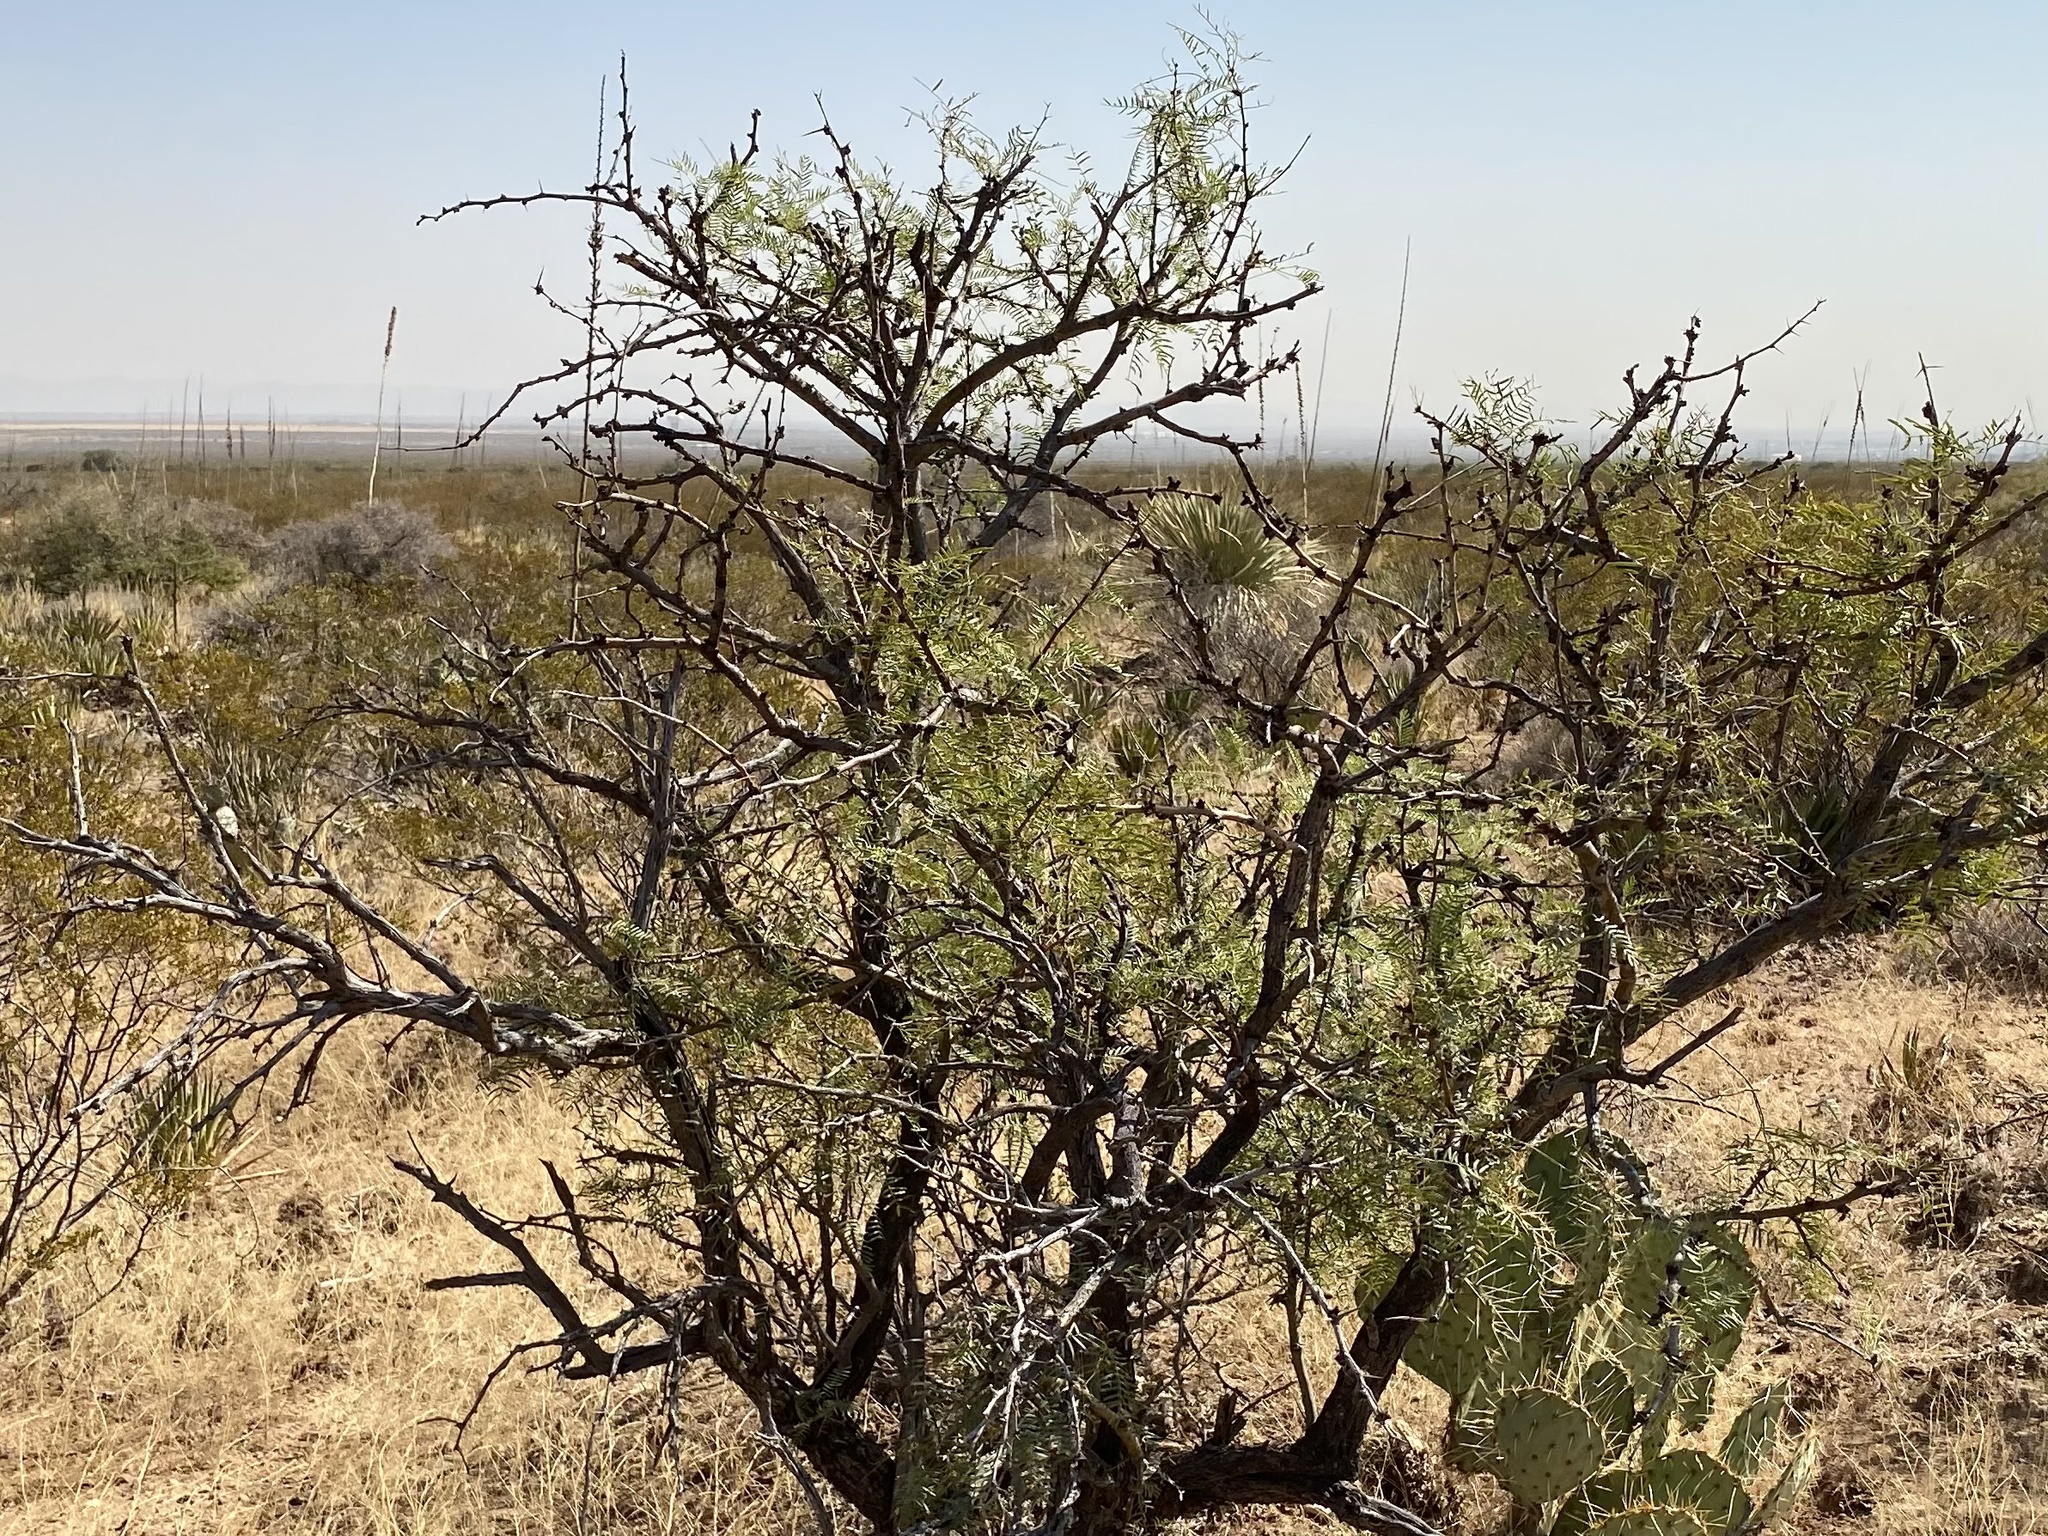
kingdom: Plantae
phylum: Tracheophyta
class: Magnoliopsida
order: Fabales
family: Fabaceae
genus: Prosopis
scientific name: Prosopis glandulosa
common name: Honey mesquite
